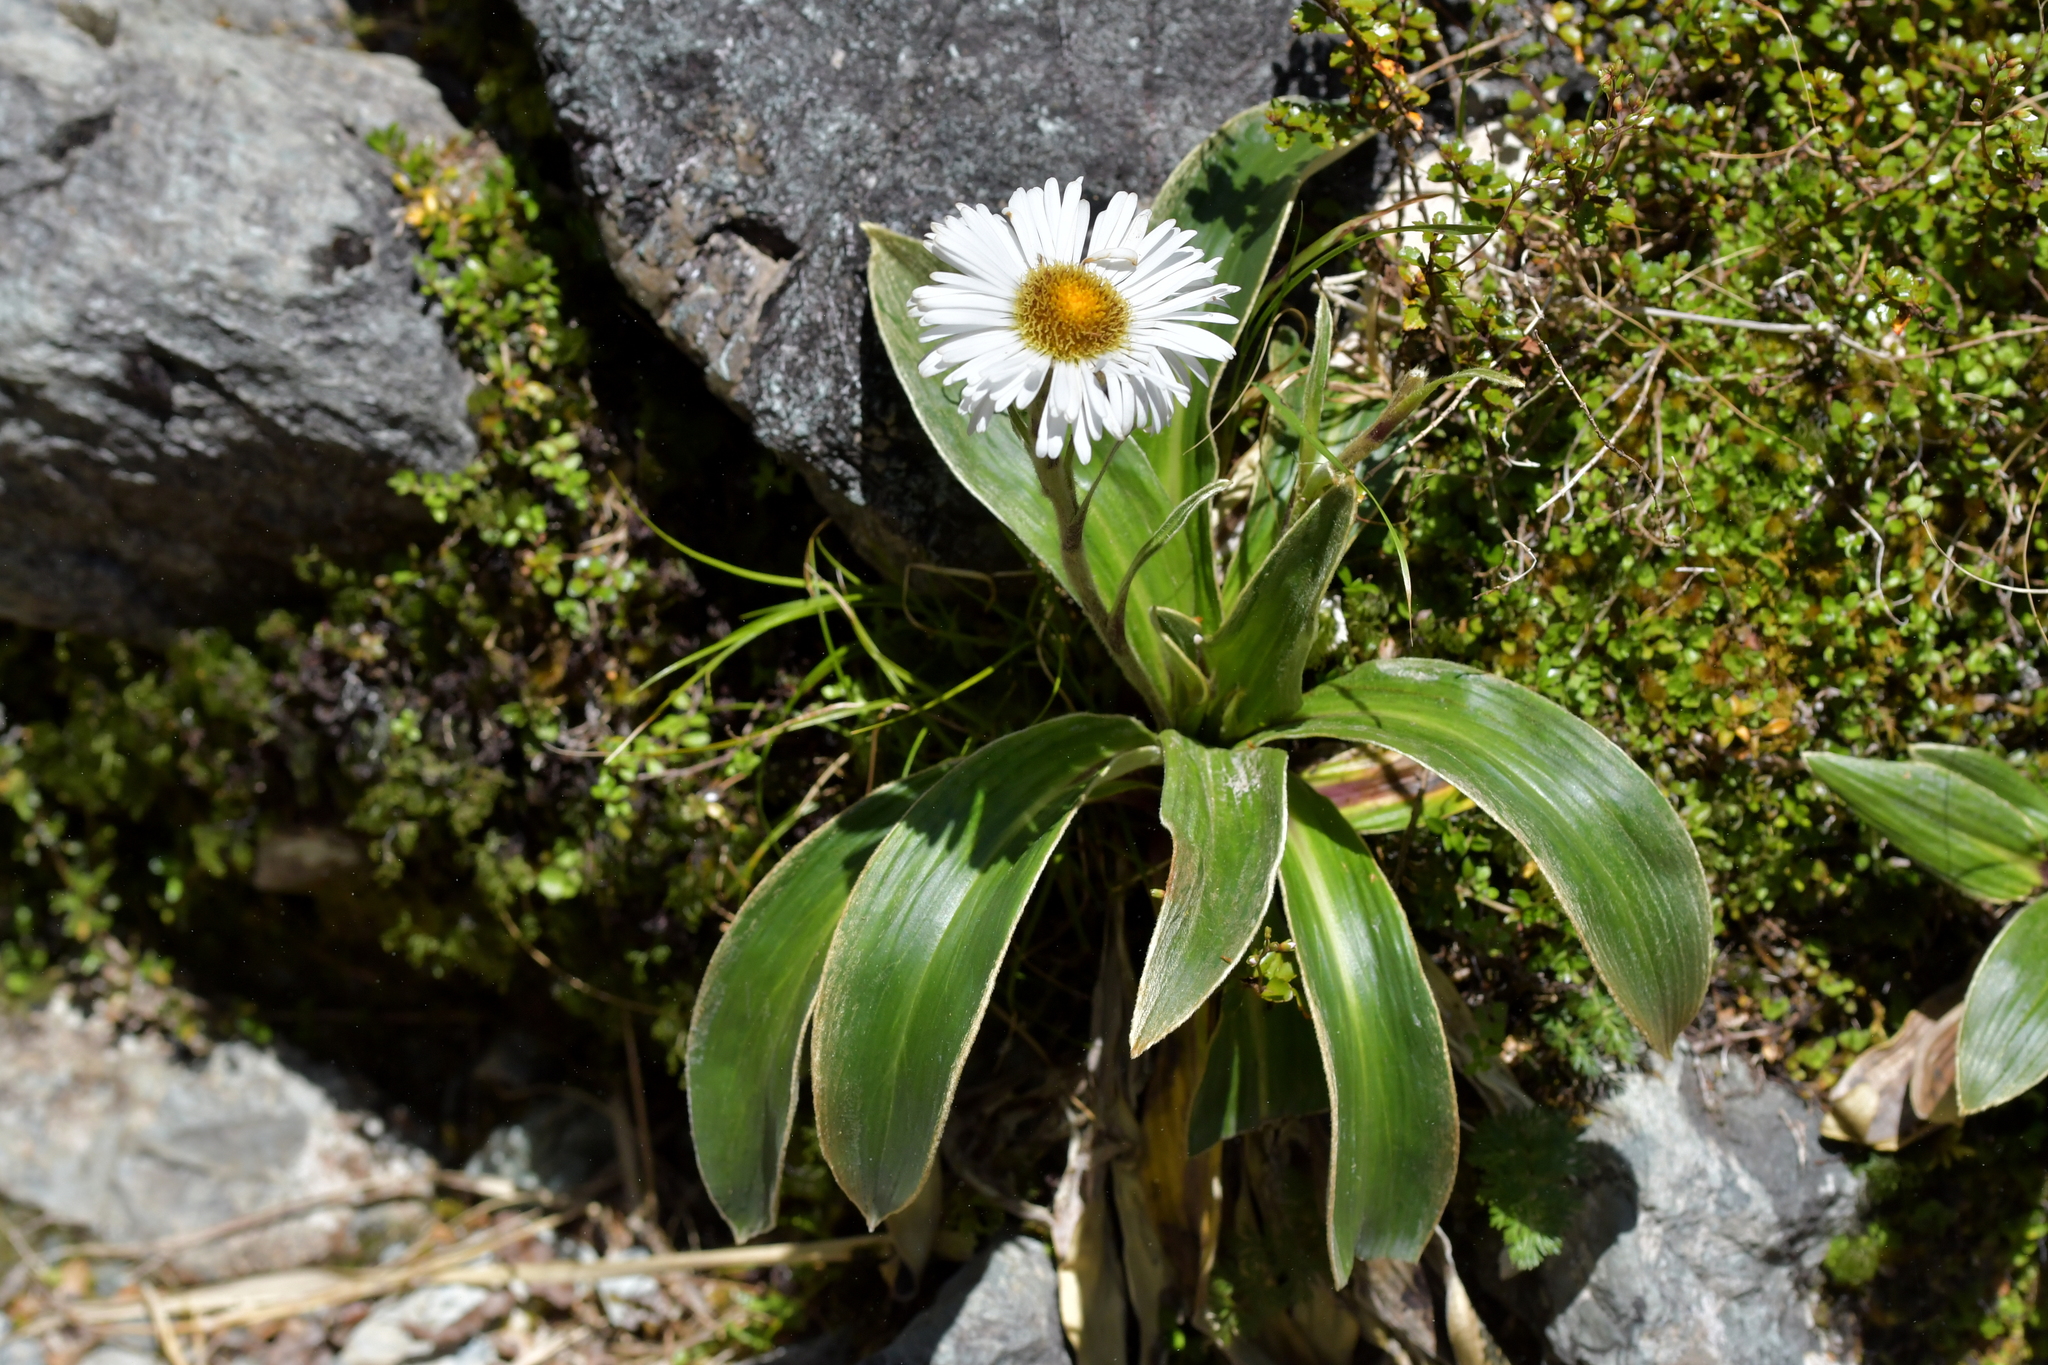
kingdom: Plantae
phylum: Tracheophyta
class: Magnoliopsida
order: Asterales
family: Asteraceae
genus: Celmisia
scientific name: Celmisia verbascifolia
